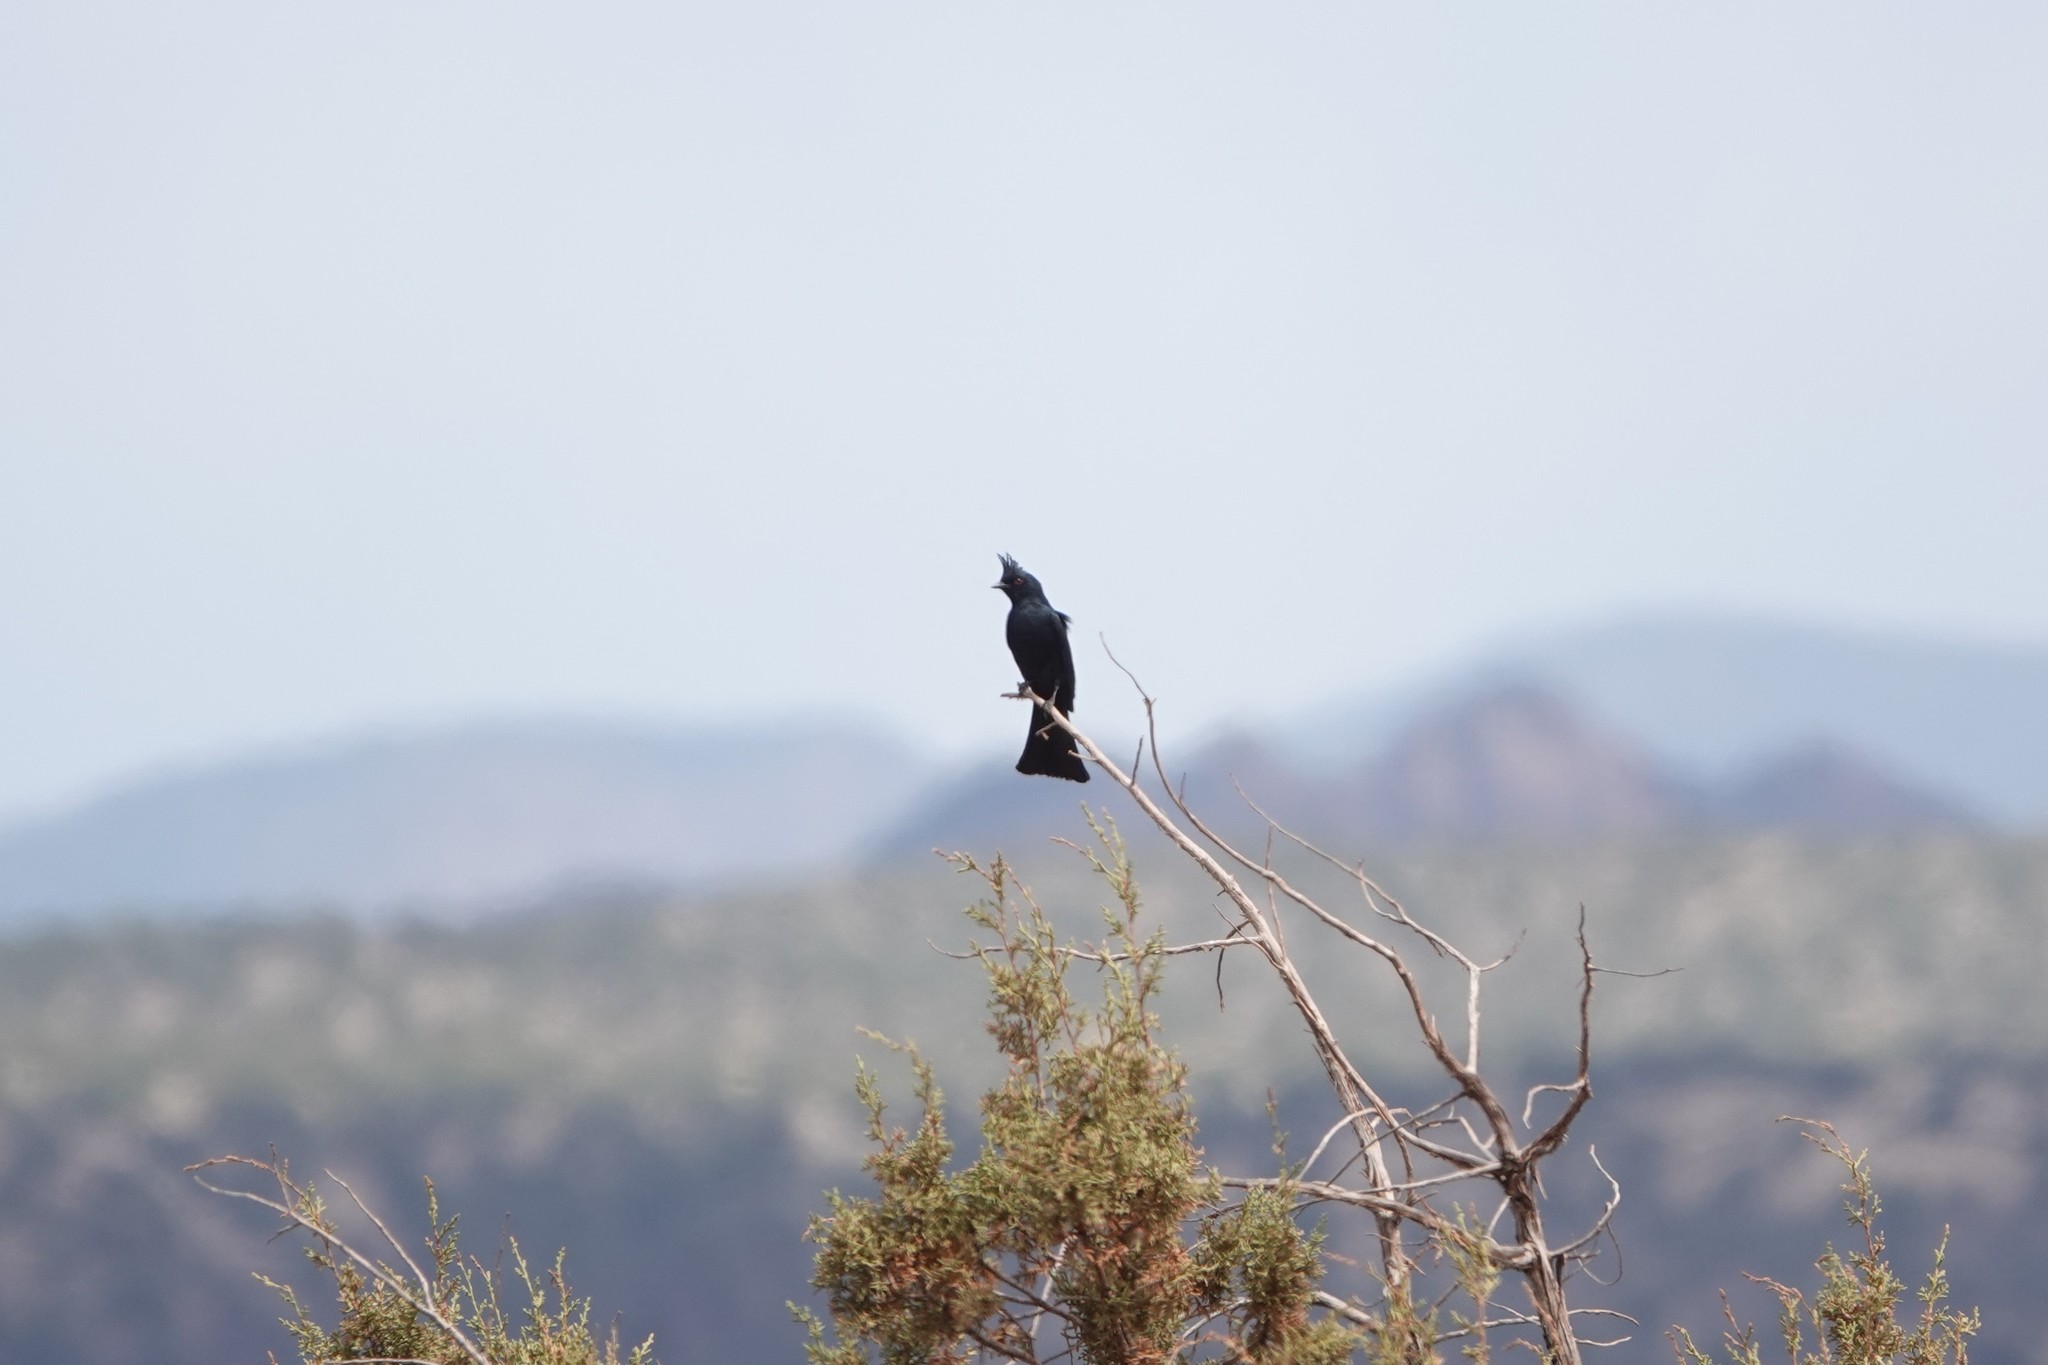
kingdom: Animalia
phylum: Chordata
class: Aves
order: Passeriformes
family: Ptilogonatidae
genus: Phainopepla
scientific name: Phainopepla nitens
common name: Phainopepla
